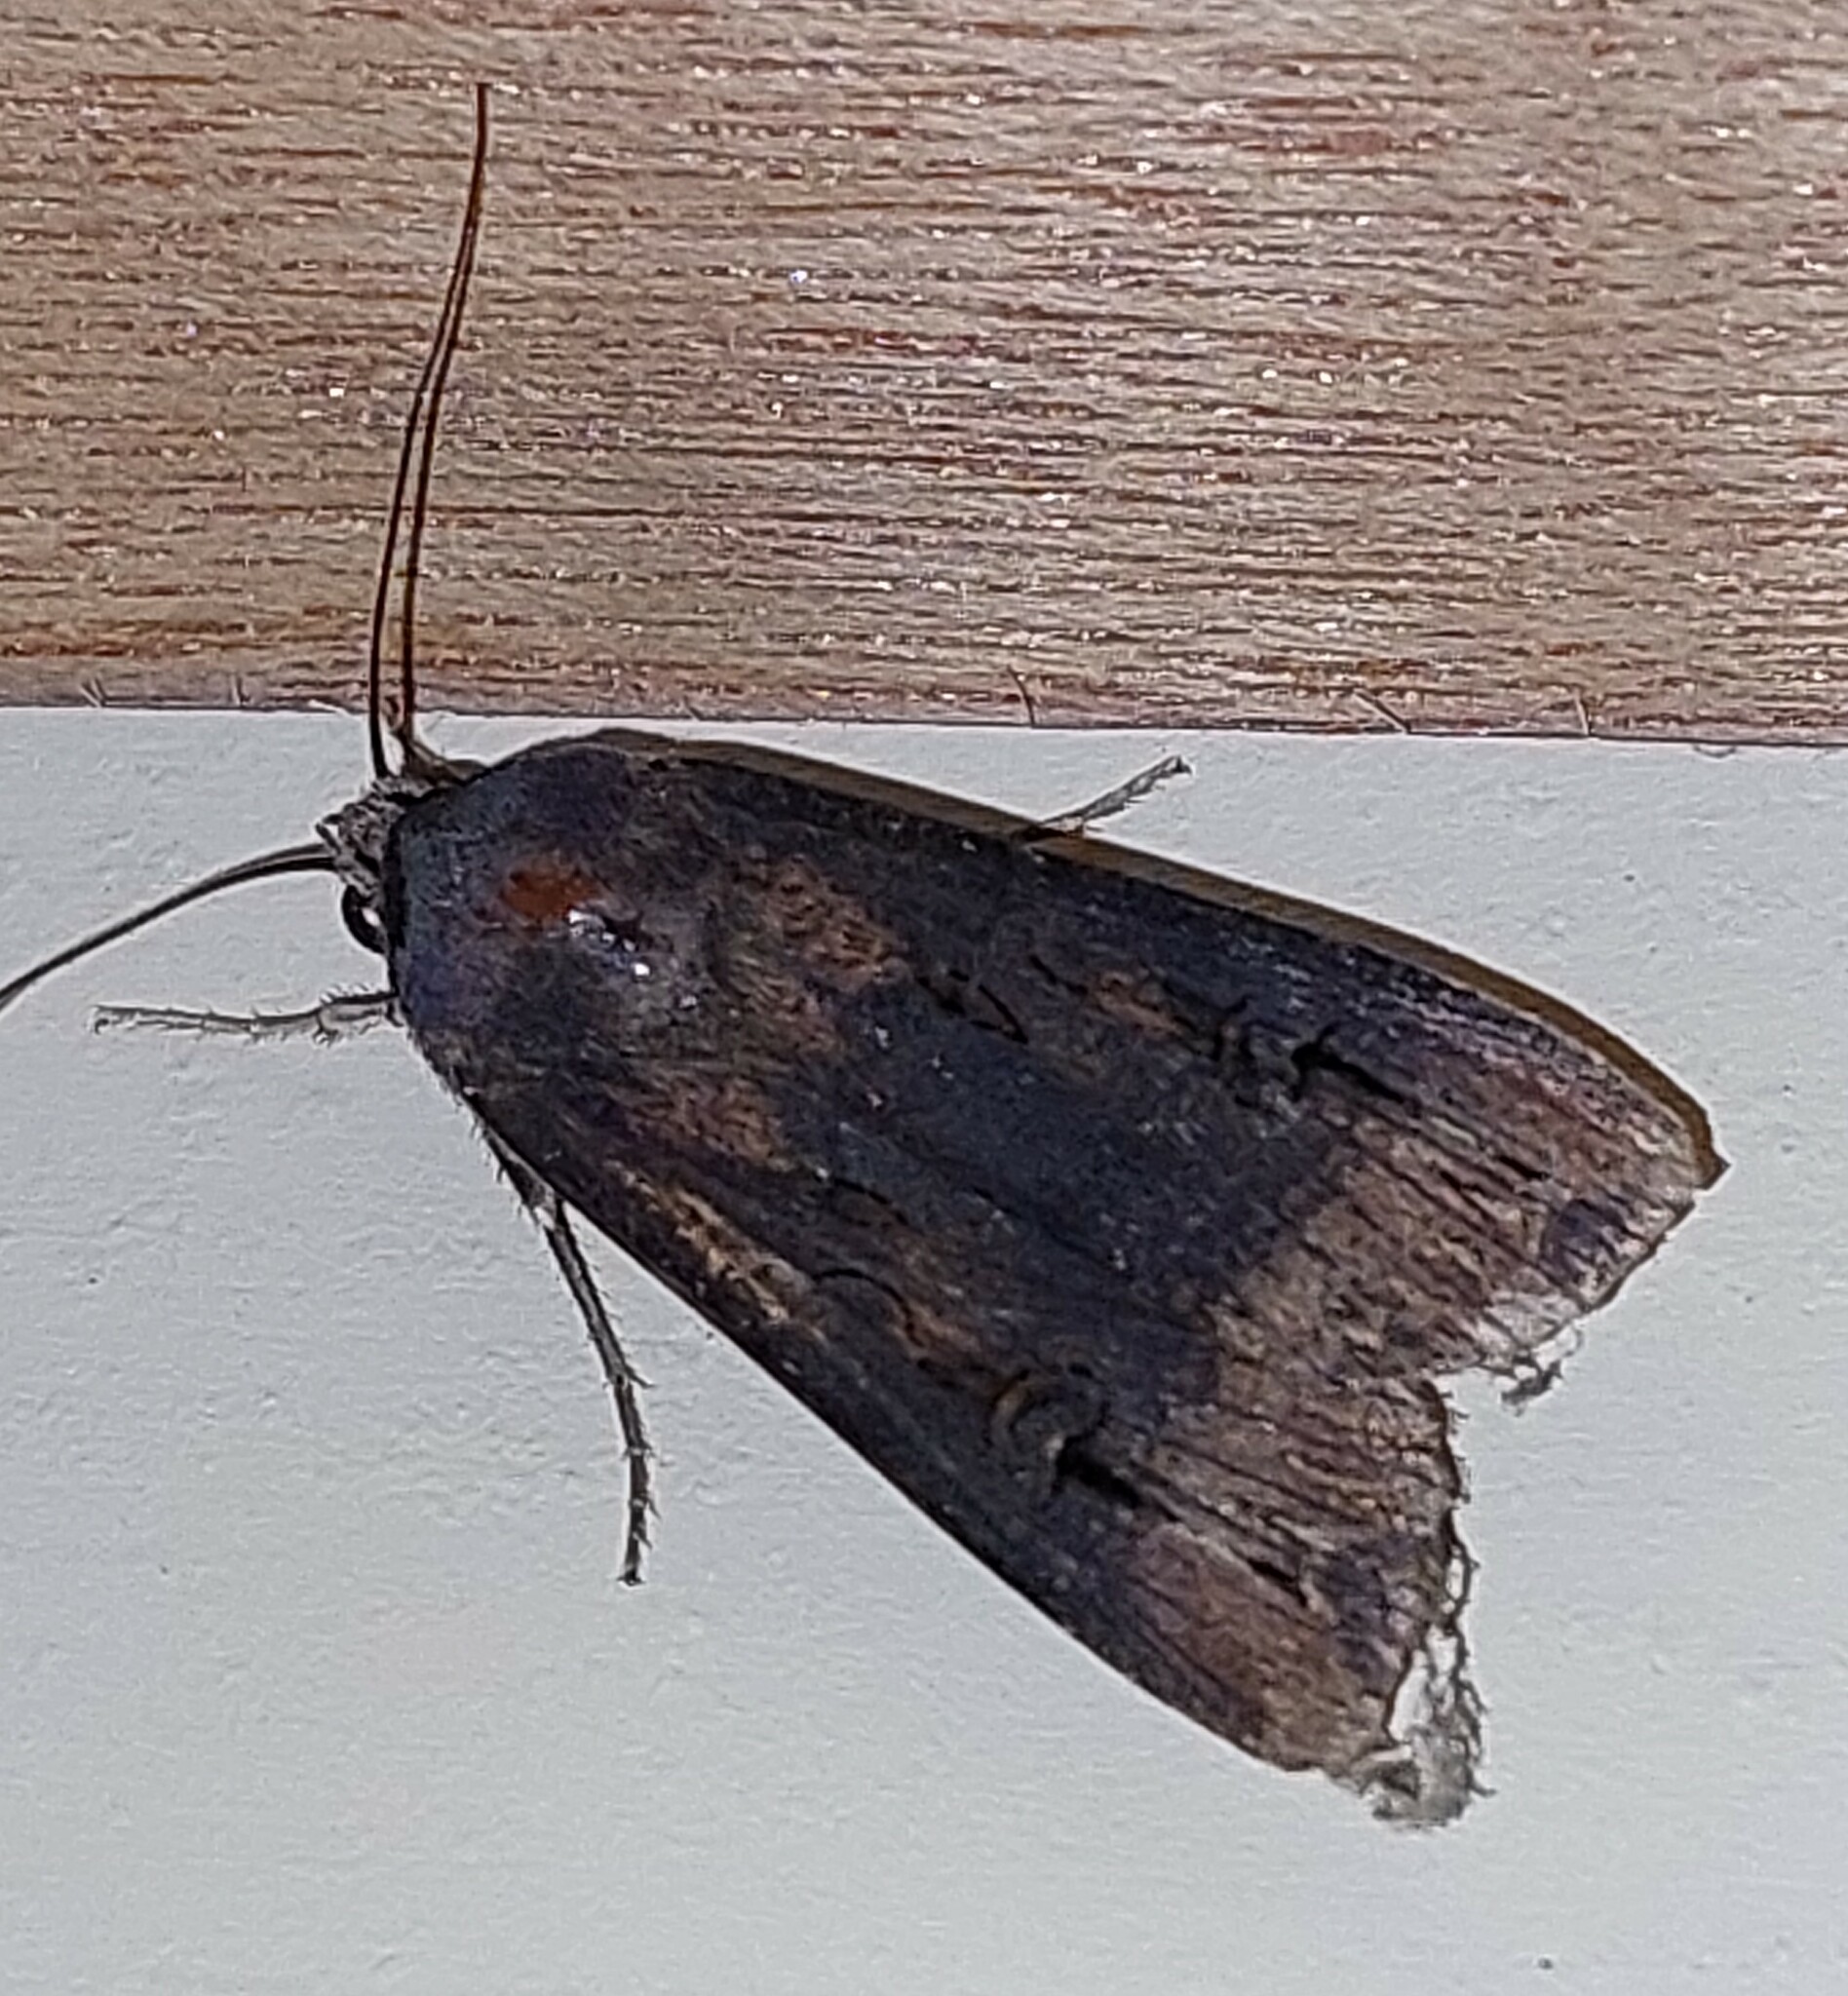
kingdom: Animalia
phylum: Arthropoda
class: Insecta
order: Lepidoptera
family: Noctuidae
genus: Agrotis
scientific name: Agrotis ipsilon
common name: Dark sword-grass
